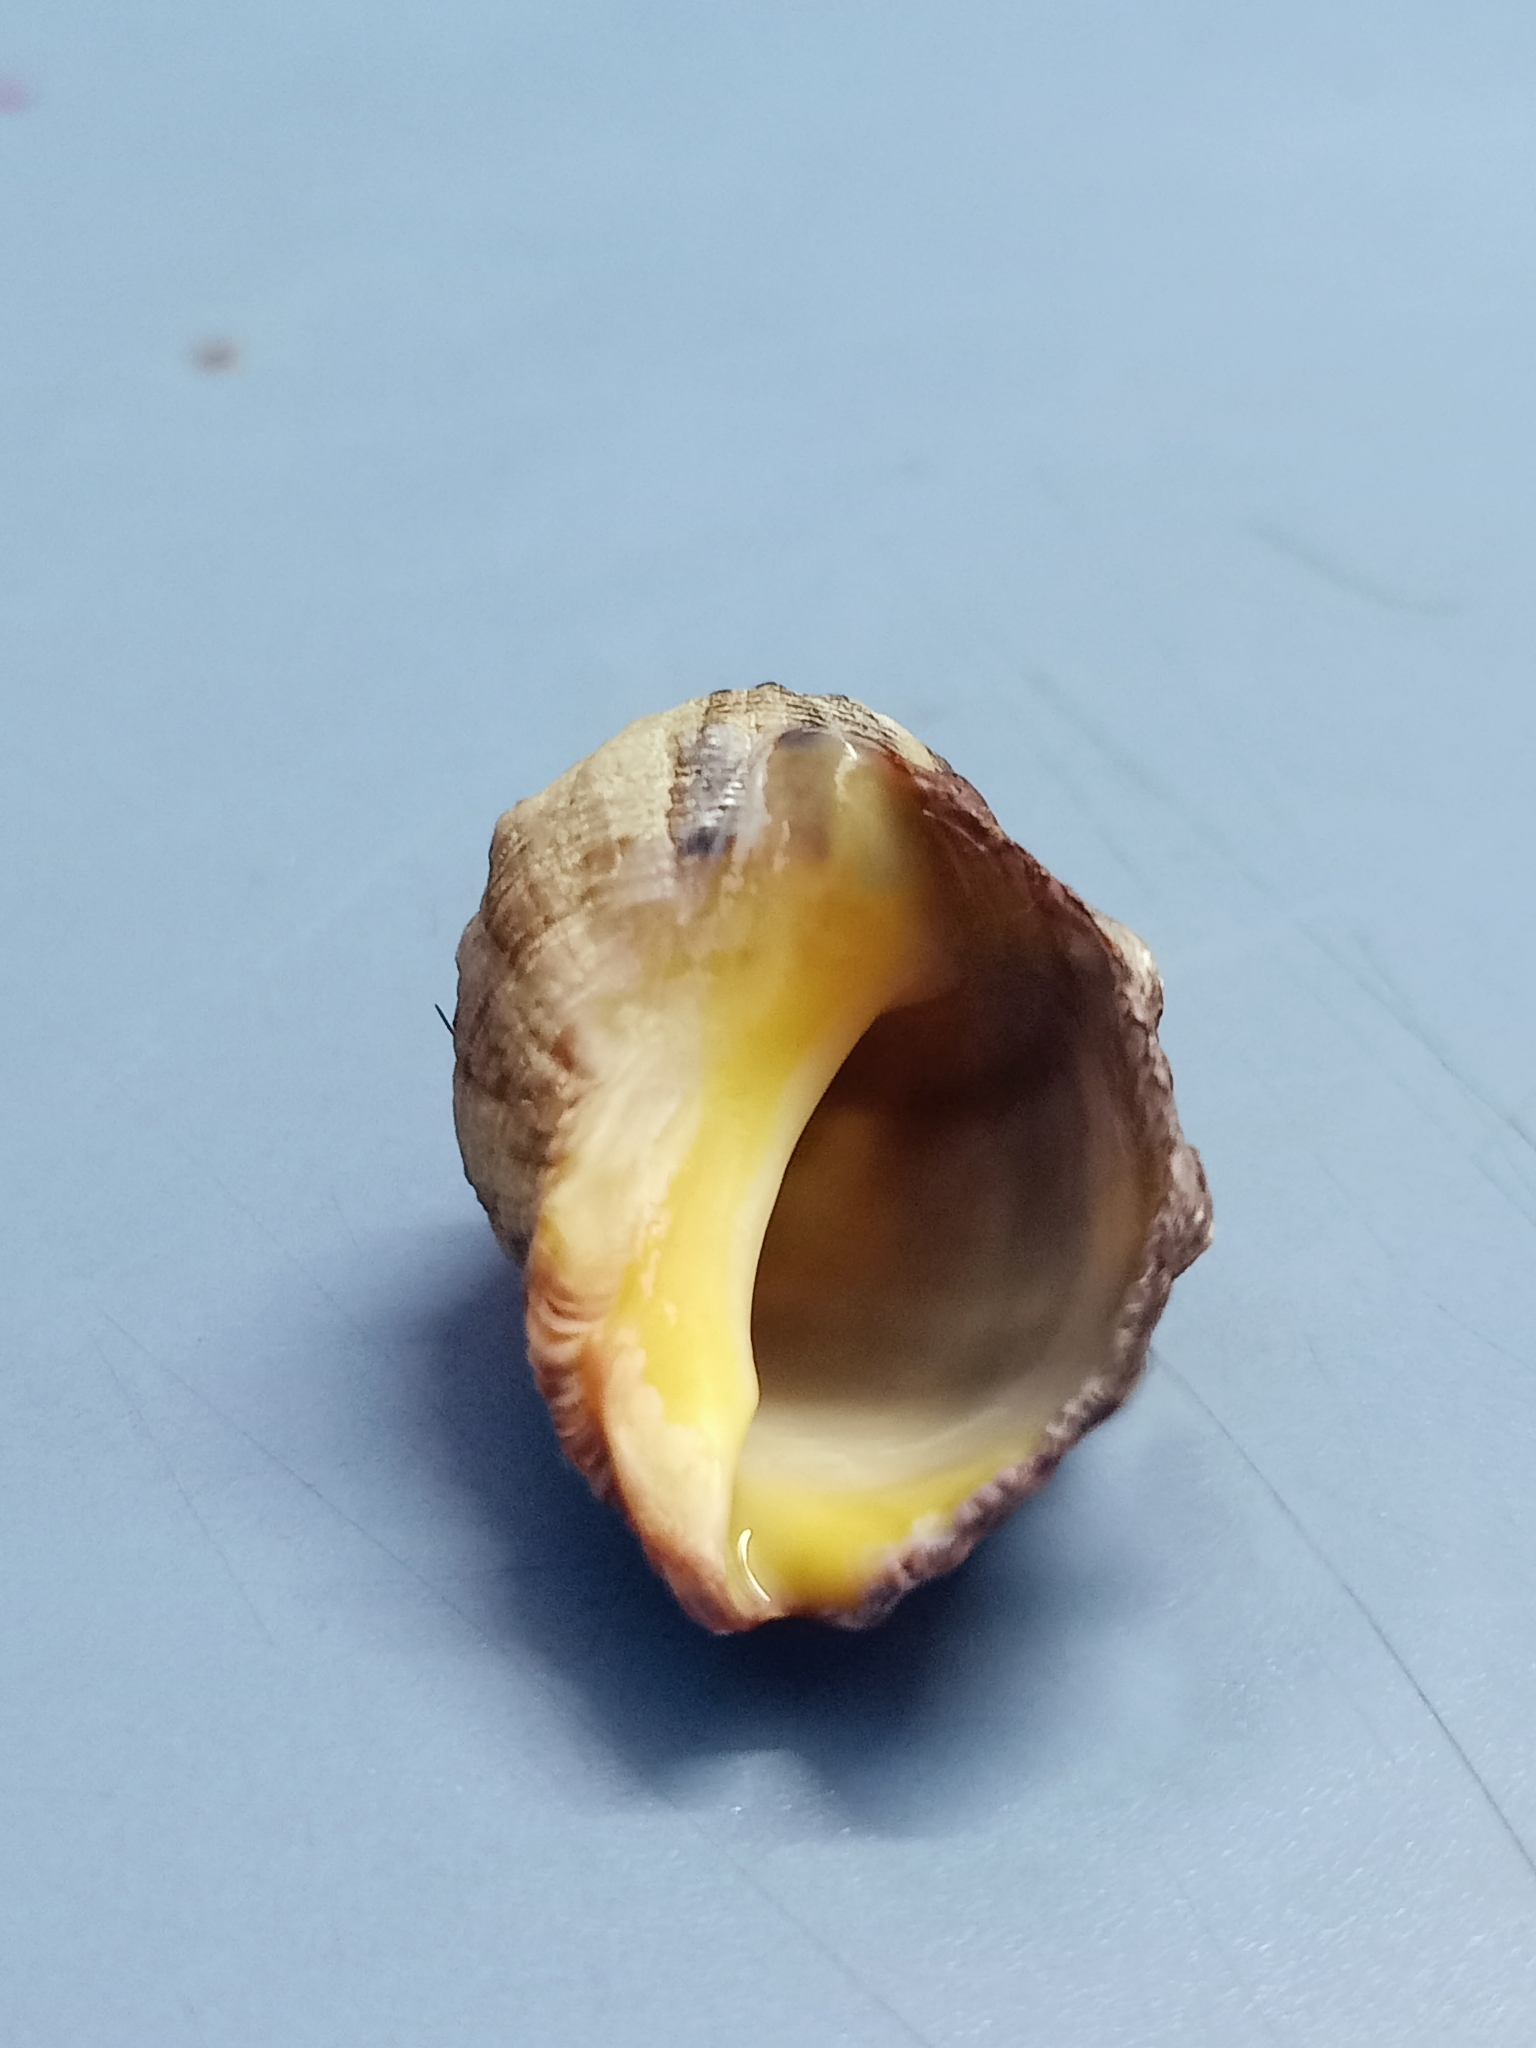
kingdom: Animalia
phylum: Mollusca
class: Gastropoda
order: Neogastropoda
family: Muricidae
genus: Purpura
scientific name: Purpura bufo
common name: Toad purple
